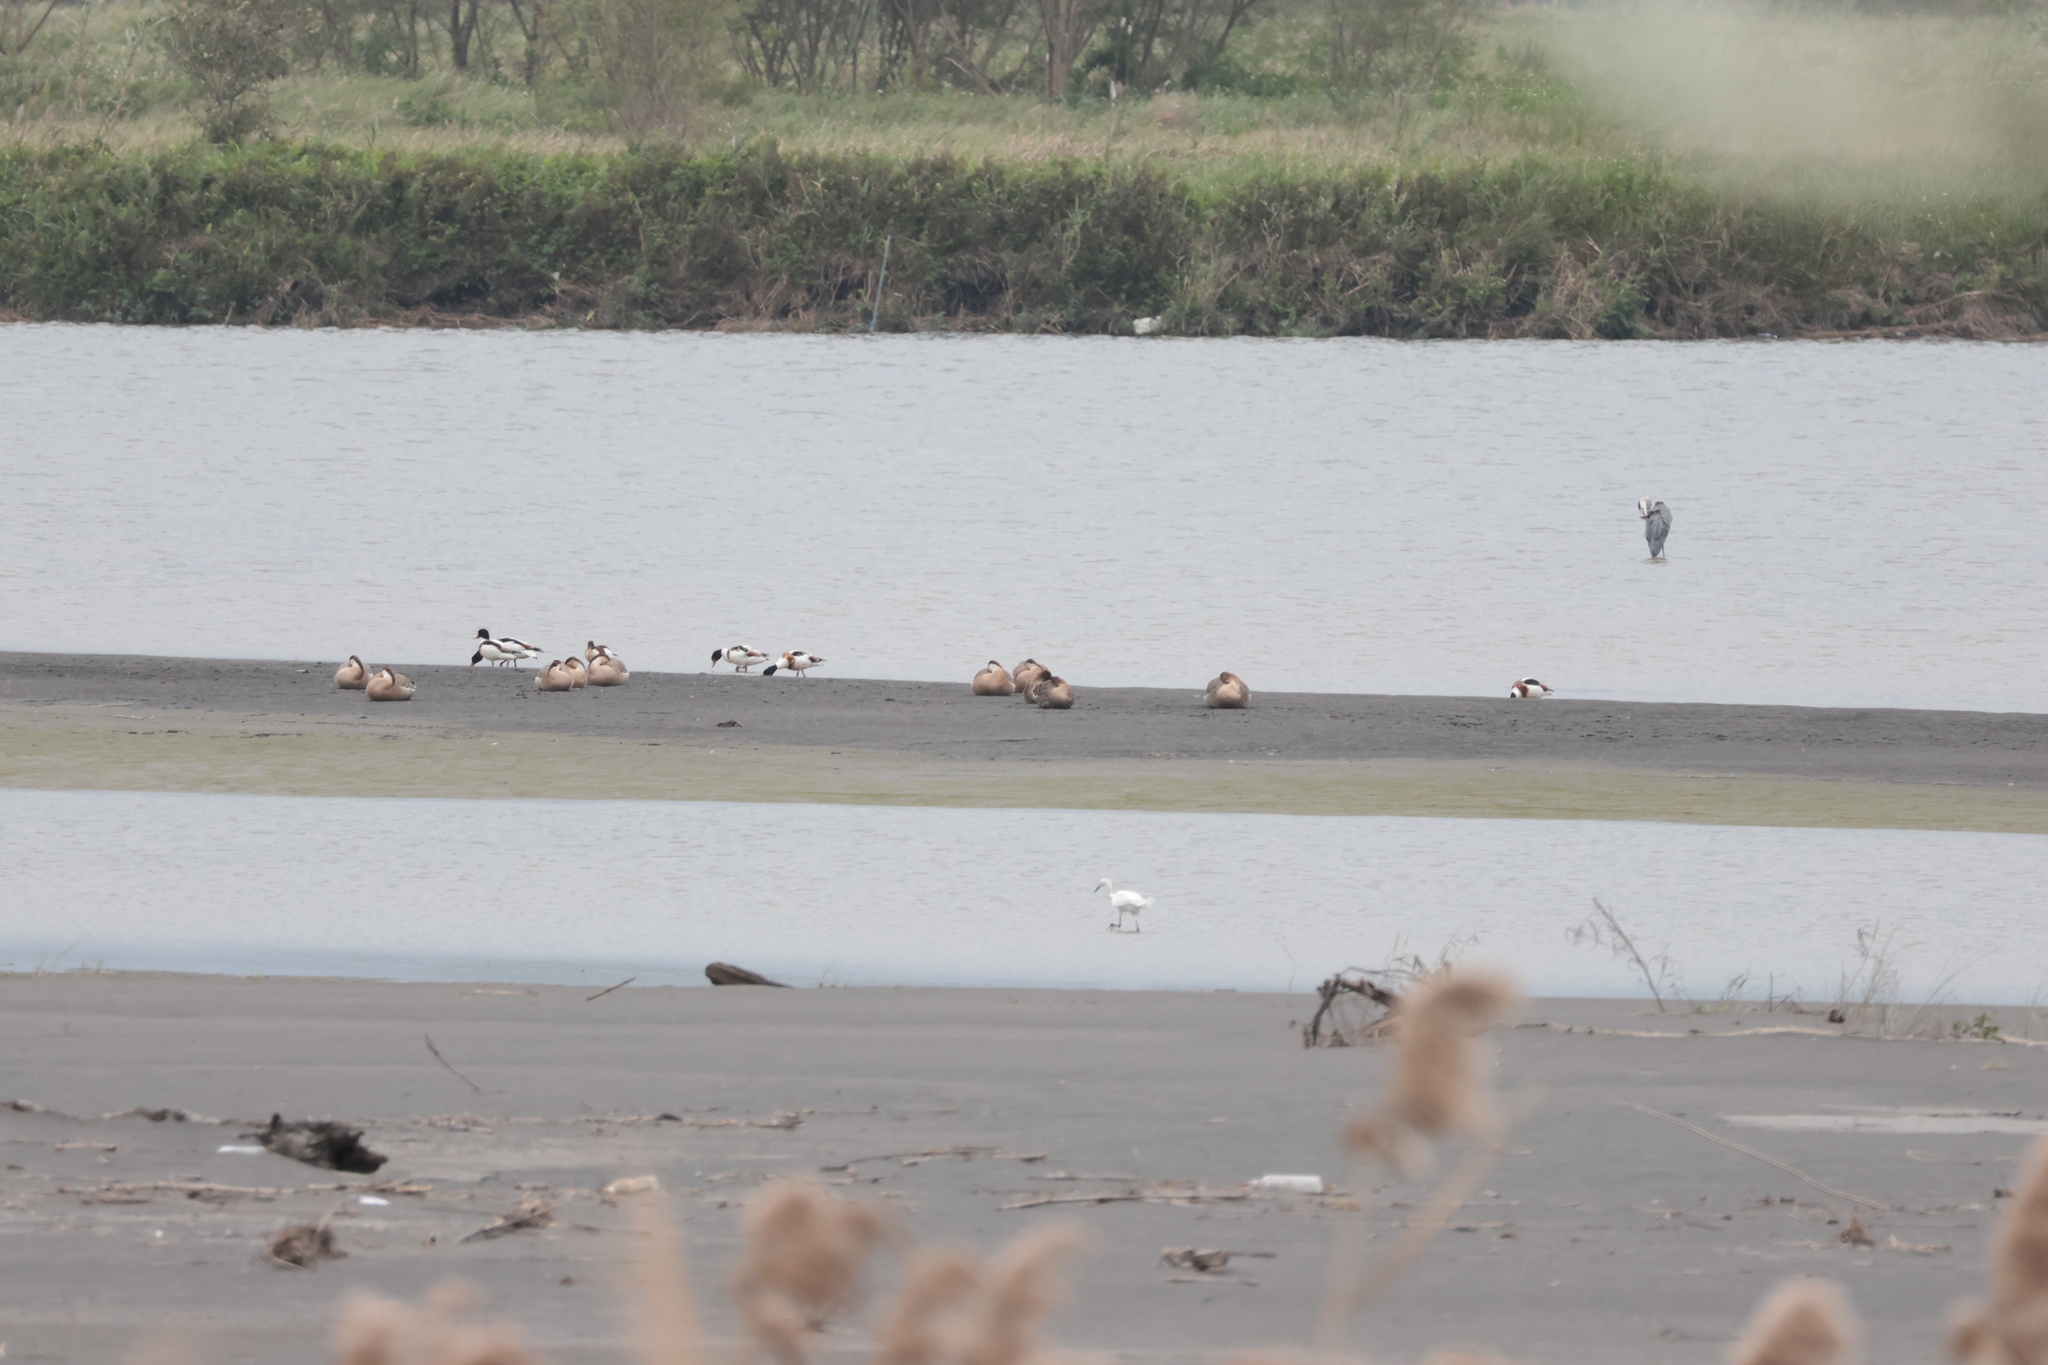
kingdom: Animalia
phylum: Chordata
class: Aves
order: Anseriformes
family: Anatidae
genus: Tadorna
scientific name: Tadorna tadorna
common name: Common shelduck
